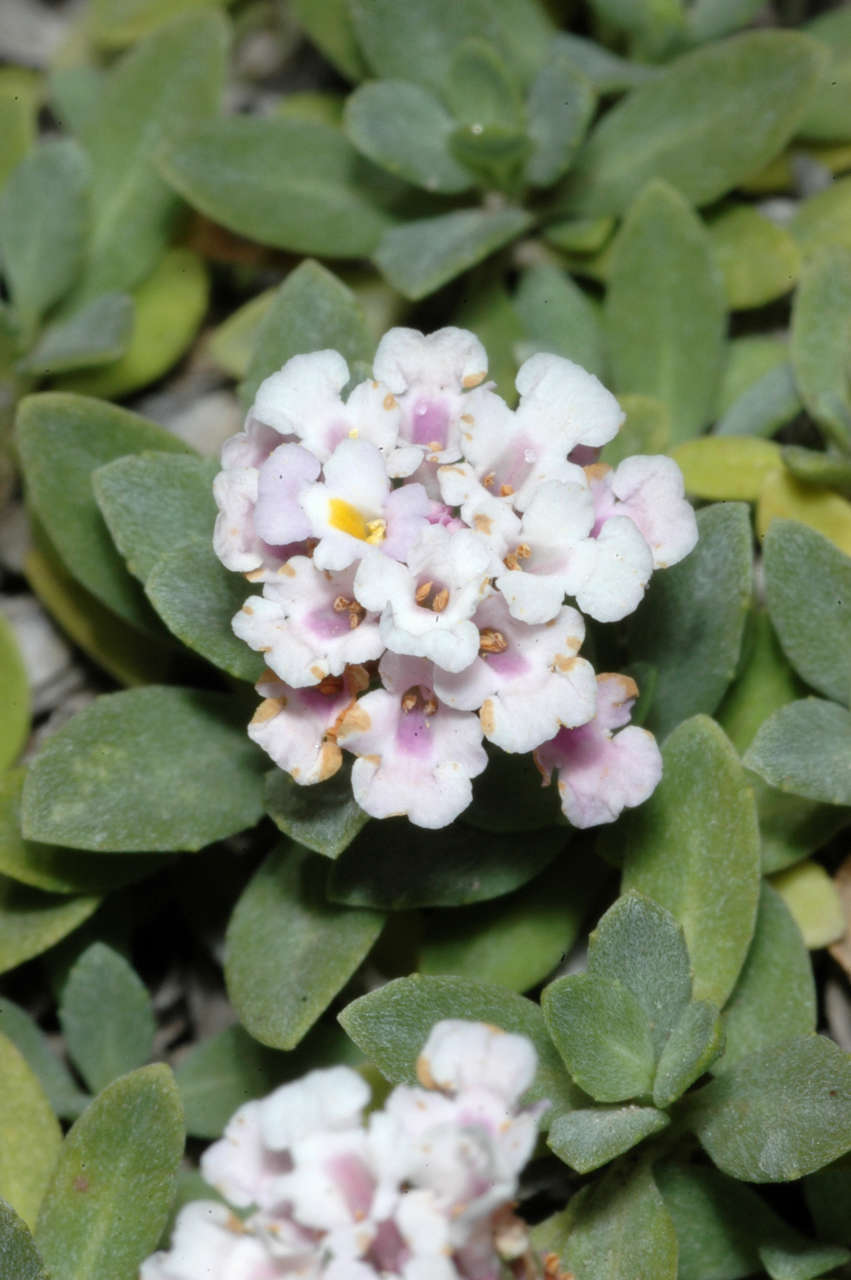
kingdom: Plantae
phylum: Tracheophyta
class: Magnoliopsida
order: Lamiales
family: Verbenaceae
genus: Phyla
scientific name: Phyla nodiflora
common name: Frogfruit
